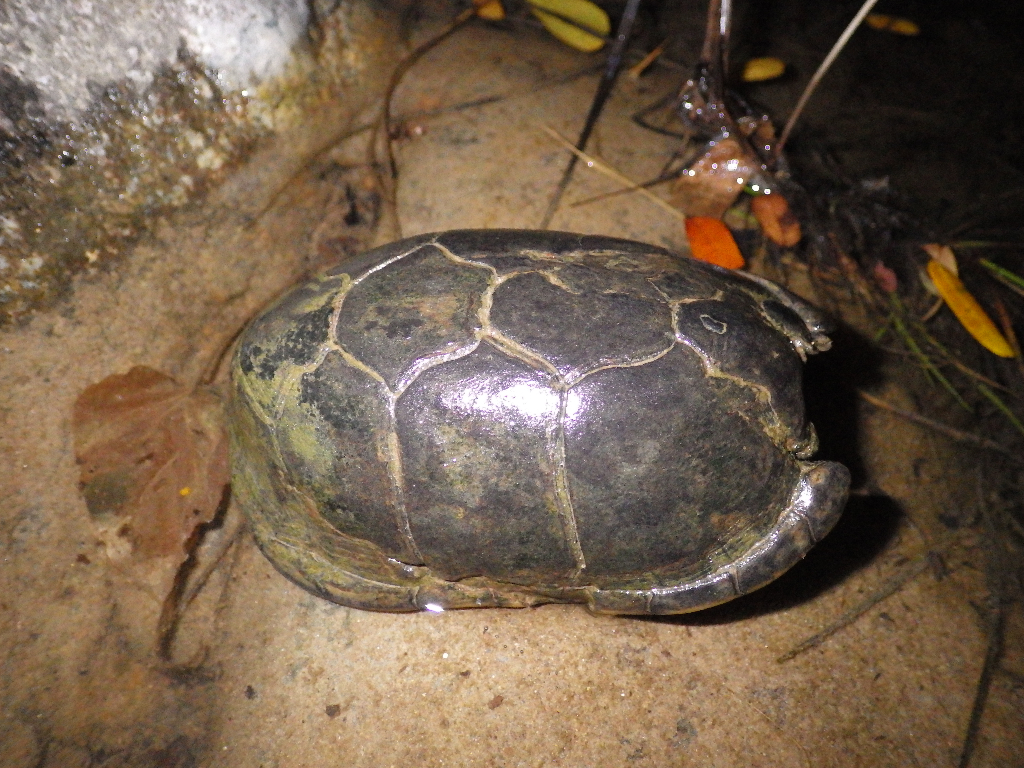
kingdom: Animalia
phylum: Chordata
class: Testudines
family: Kinosternidae
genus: Kinosternon
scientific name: Kinosternon leucostomum
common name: White-lipped mud turtle
